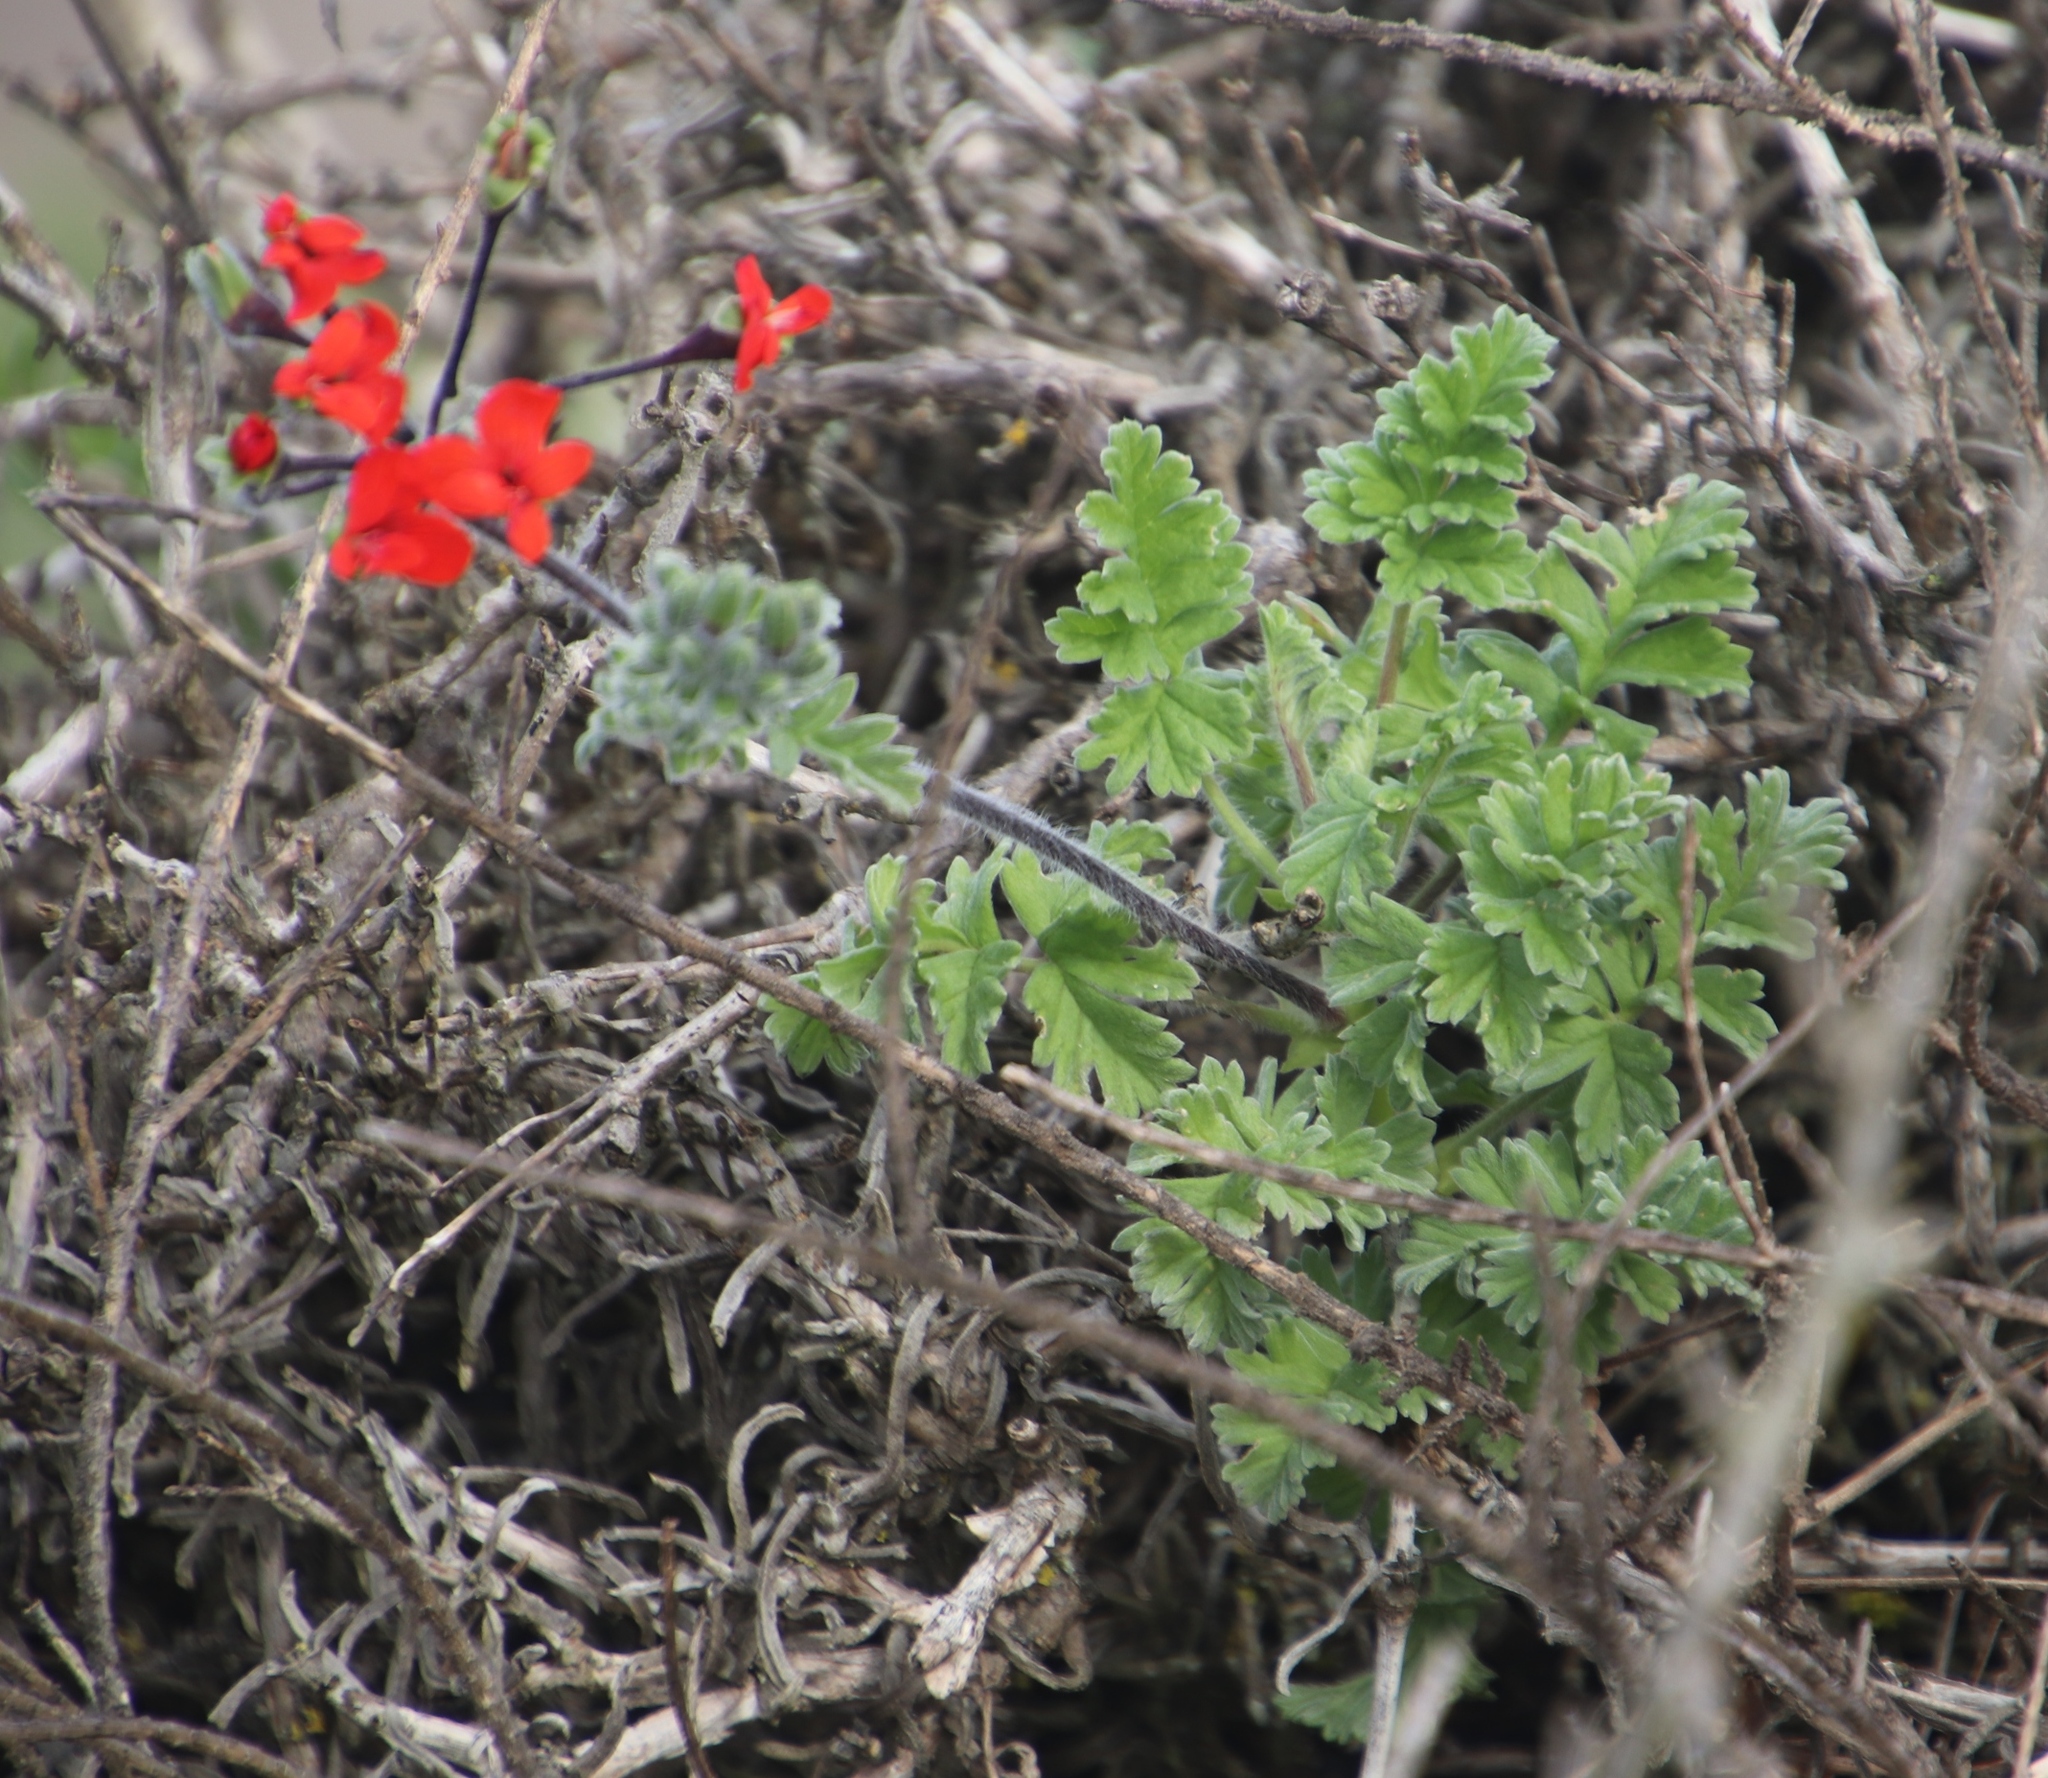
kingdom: Plantae
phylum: Tracheophyta
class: Magnoliopsida
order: Geraniales
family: Geraniaceae
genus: Pelargonium
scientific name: Pelargonium fulgidum
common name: Celandine-leaf pelargonium
